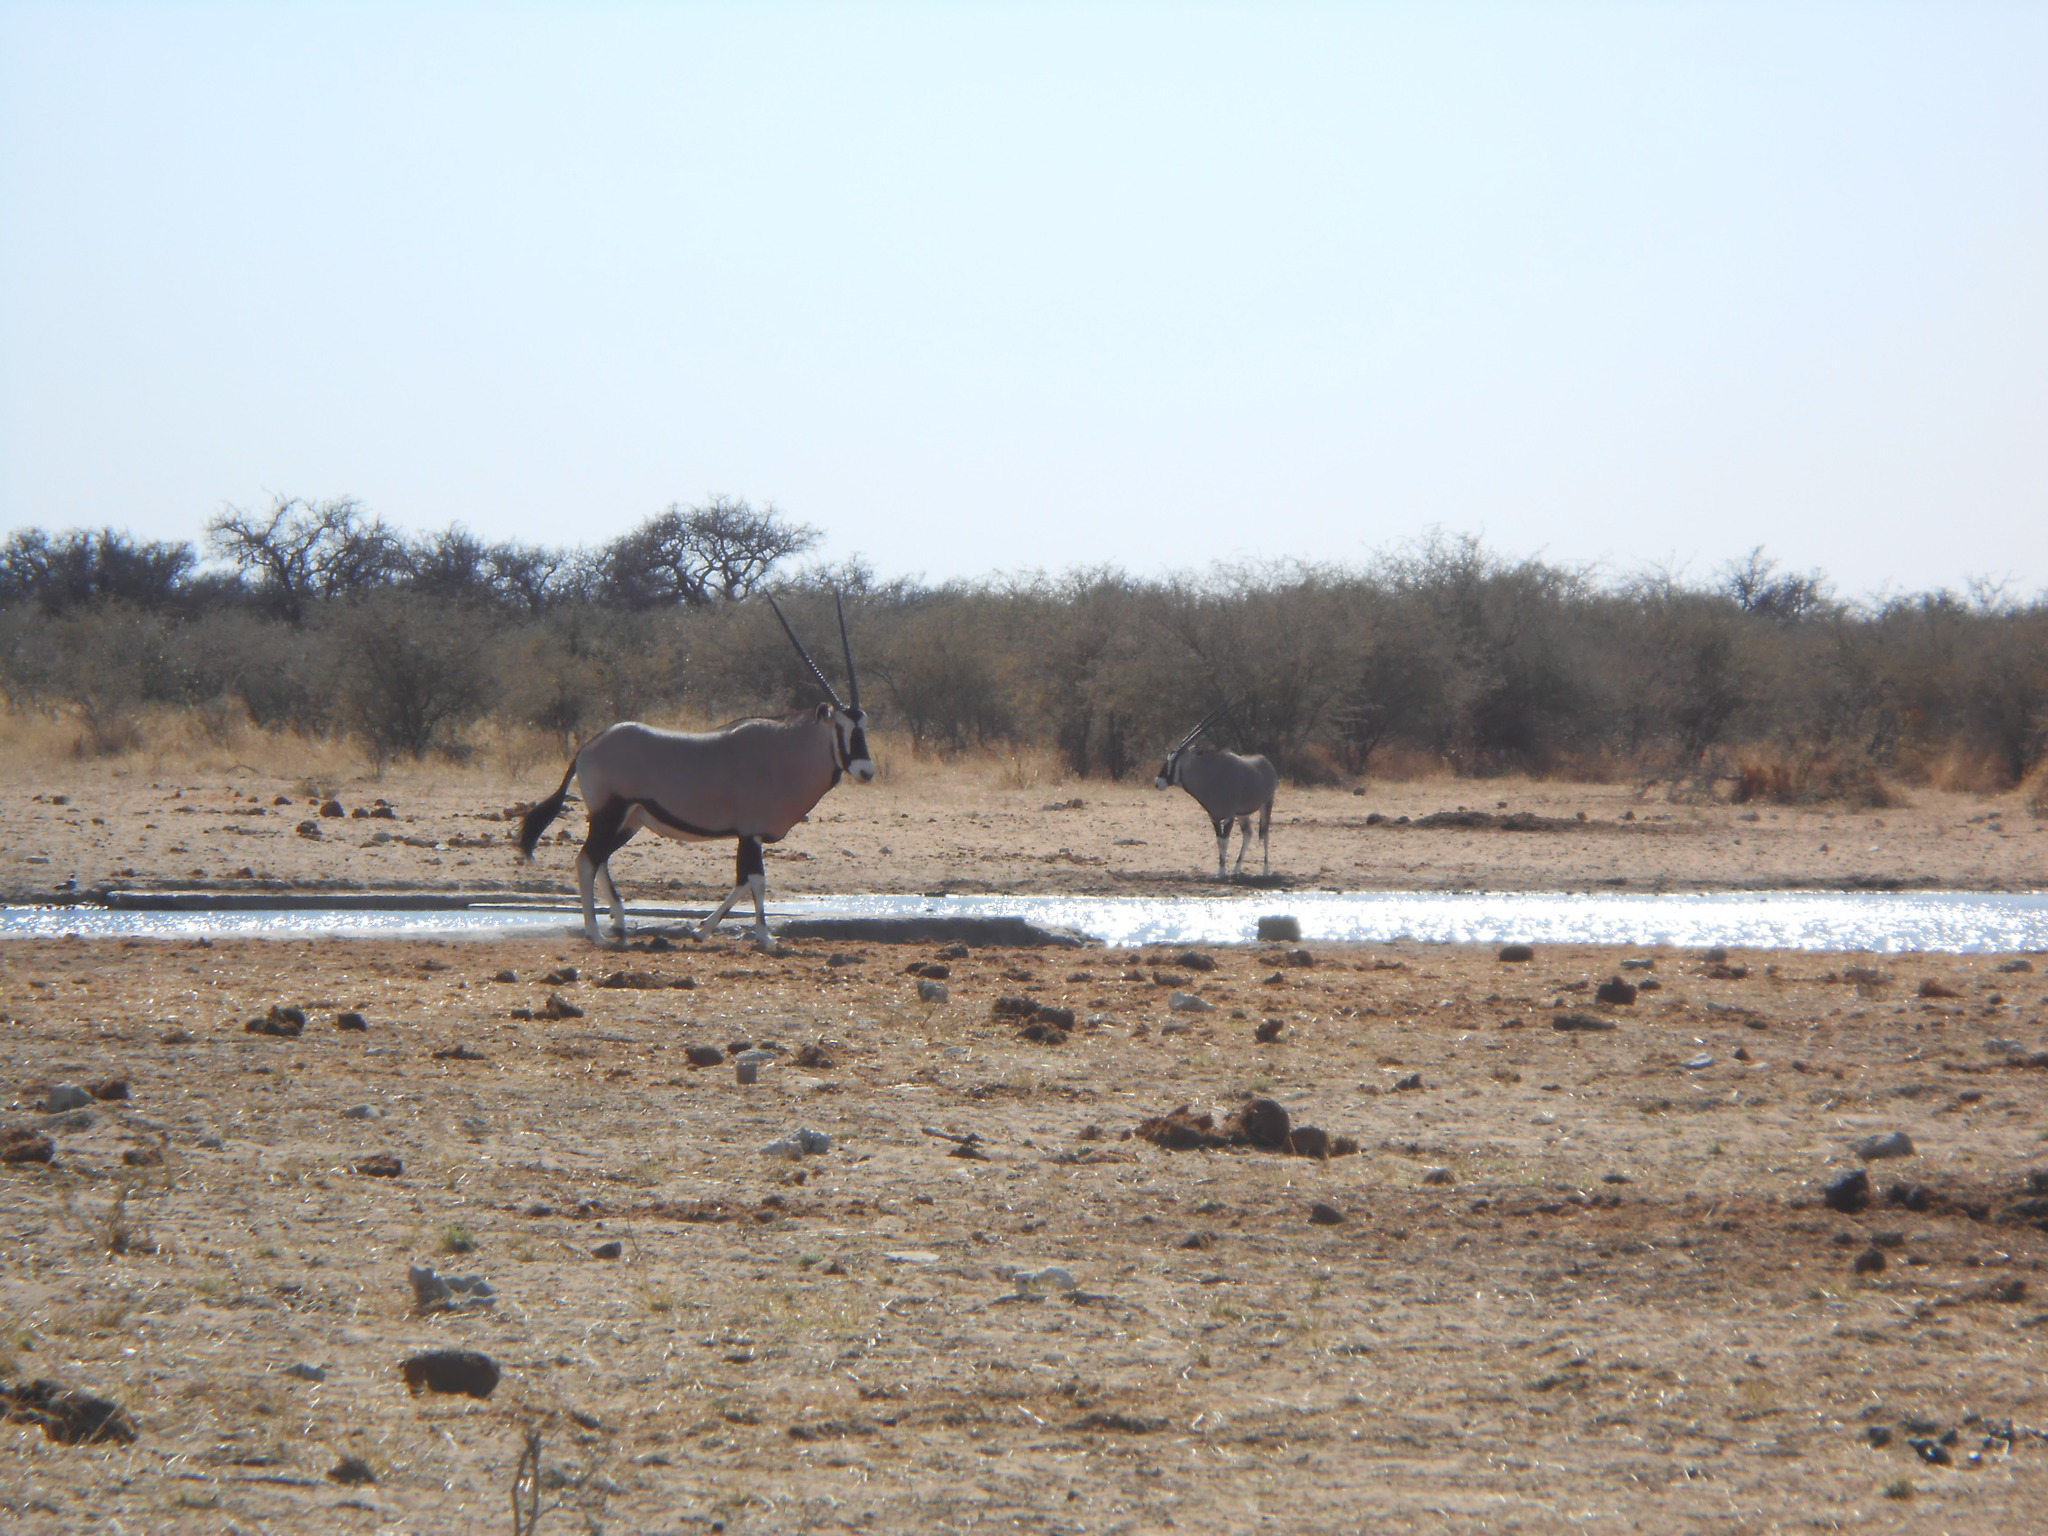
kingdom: Animalia
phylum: Chordata
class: Mammalia
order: Artiodactyla
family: Bovidae
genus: Oryx
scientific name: Oryx gazella
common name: Gemsbok
